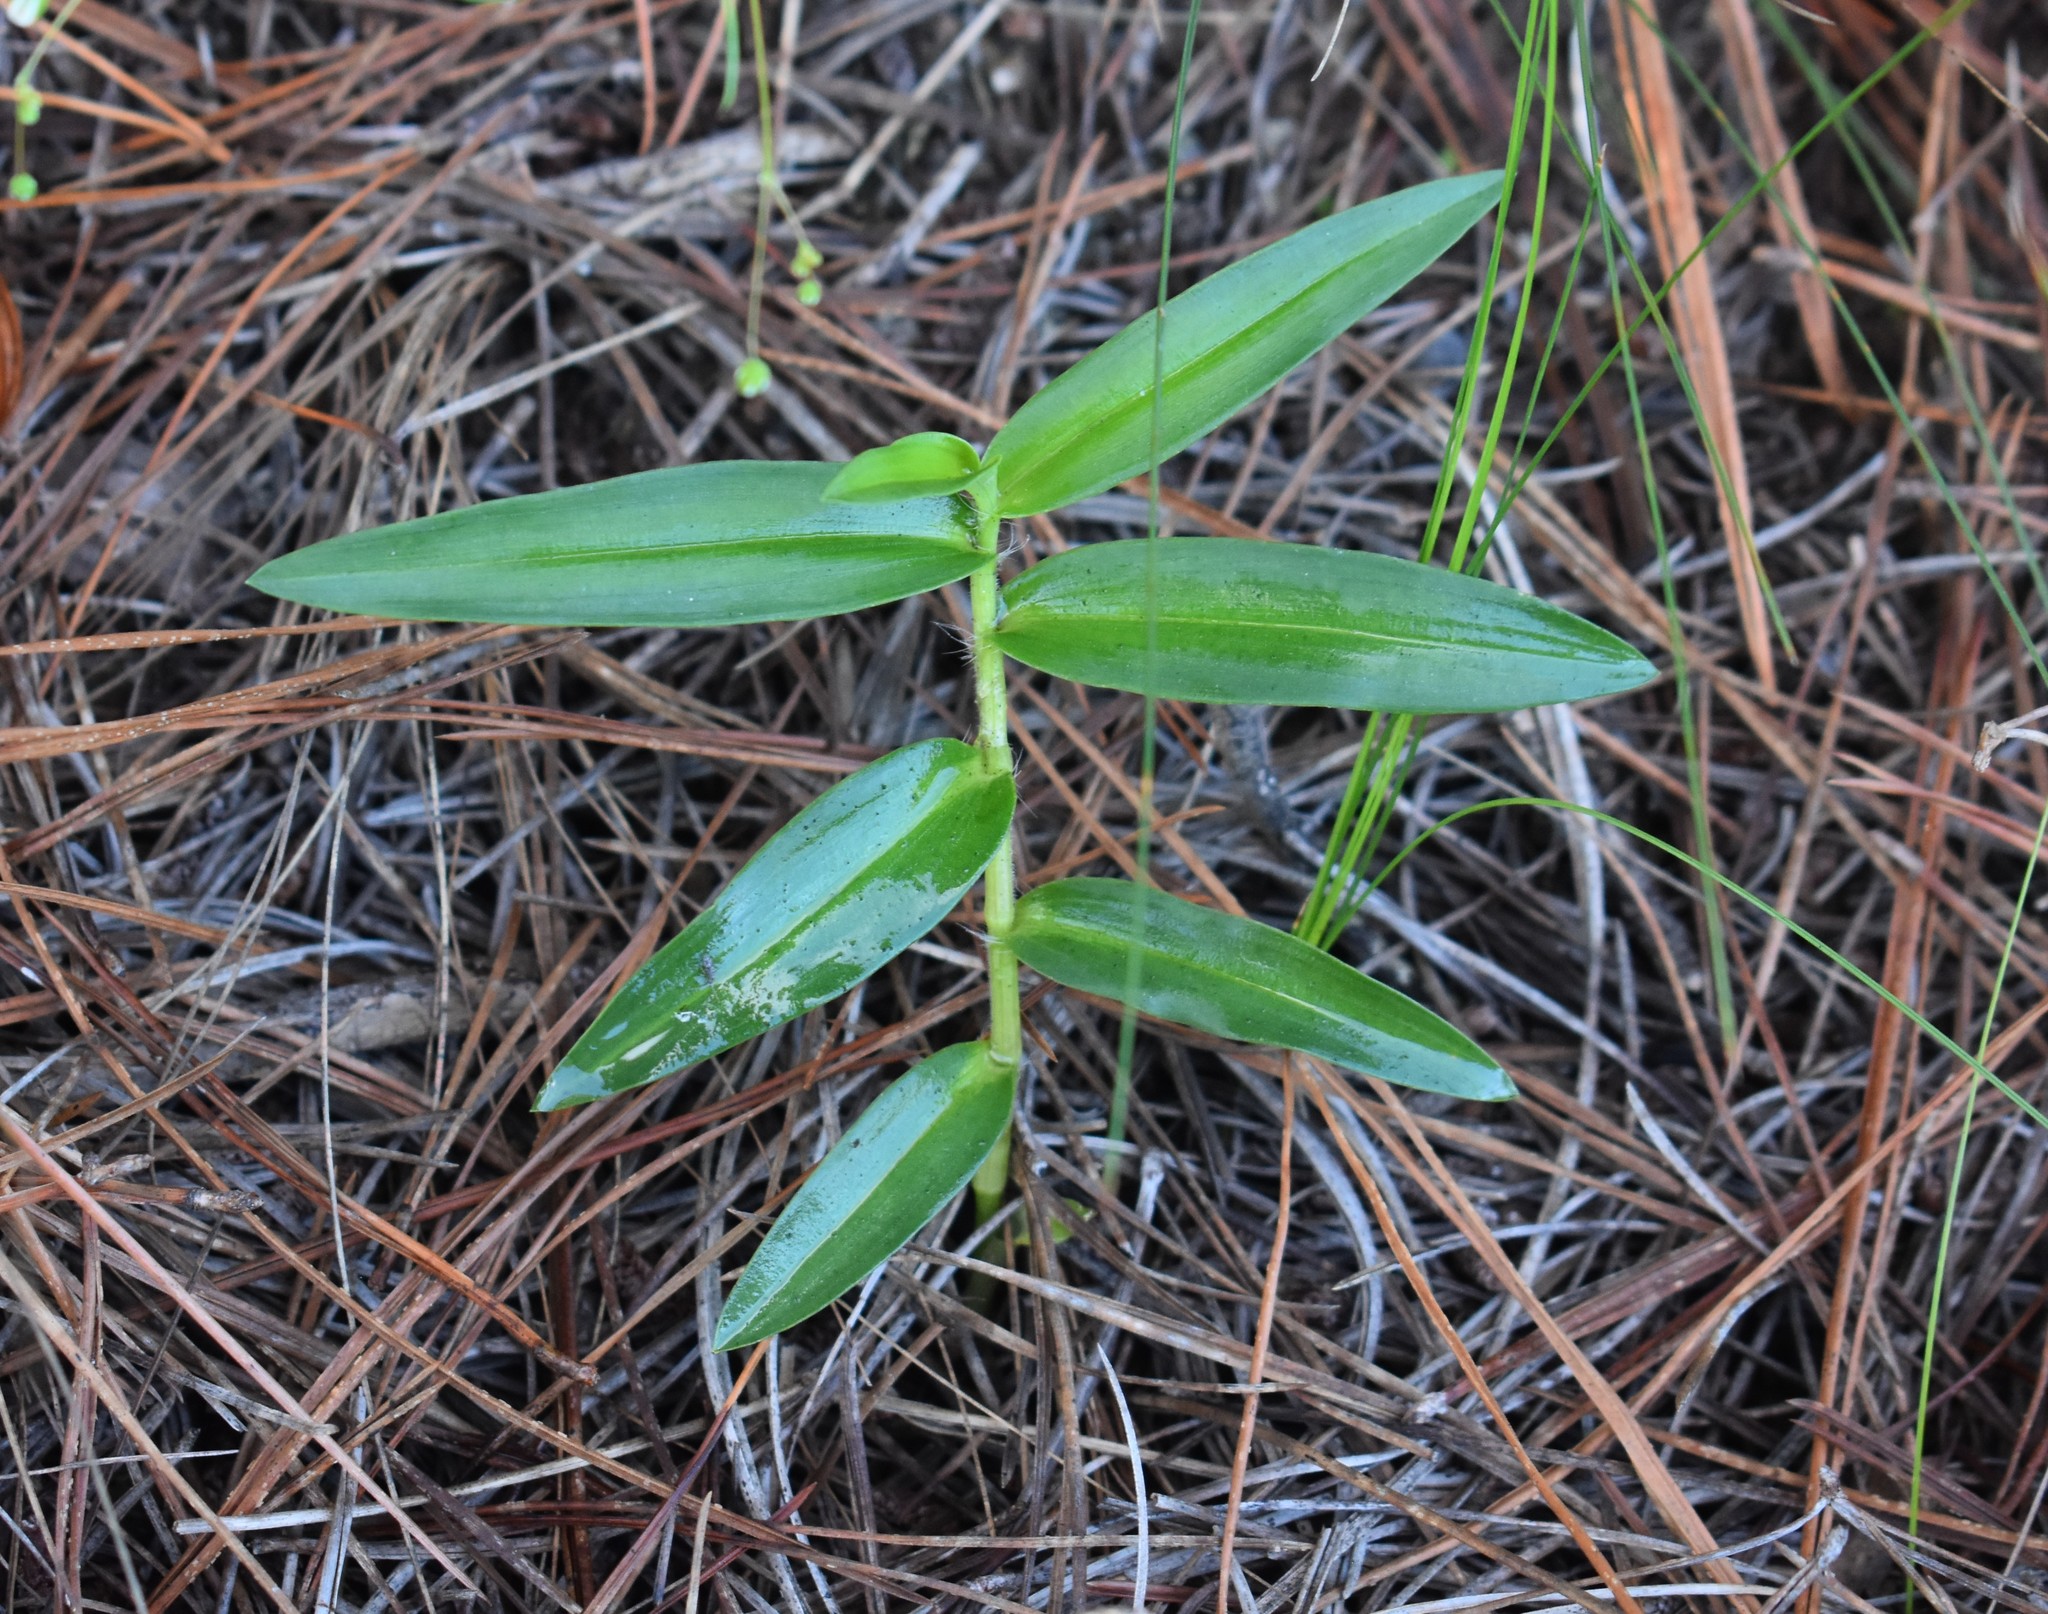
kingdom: Plantae
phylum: Tracheophyta
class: Liliopsida
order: Commelinales
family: Commelinaceae
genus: Commelina
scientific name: Commelina africana
